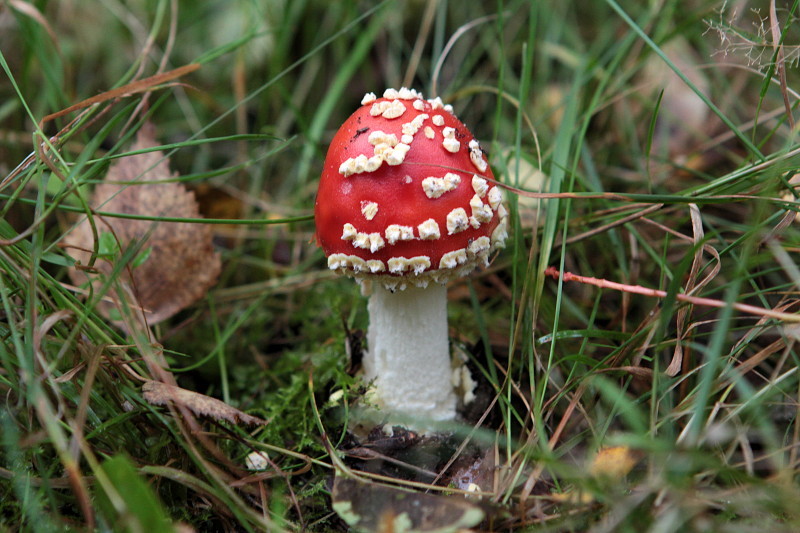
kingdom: Fungi
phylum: Basidiomycota
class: Agaricomycetes
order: Agaricales
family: Amanitaceae
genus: Amanita
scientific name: Amanita muscaria
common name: Fly agaric
